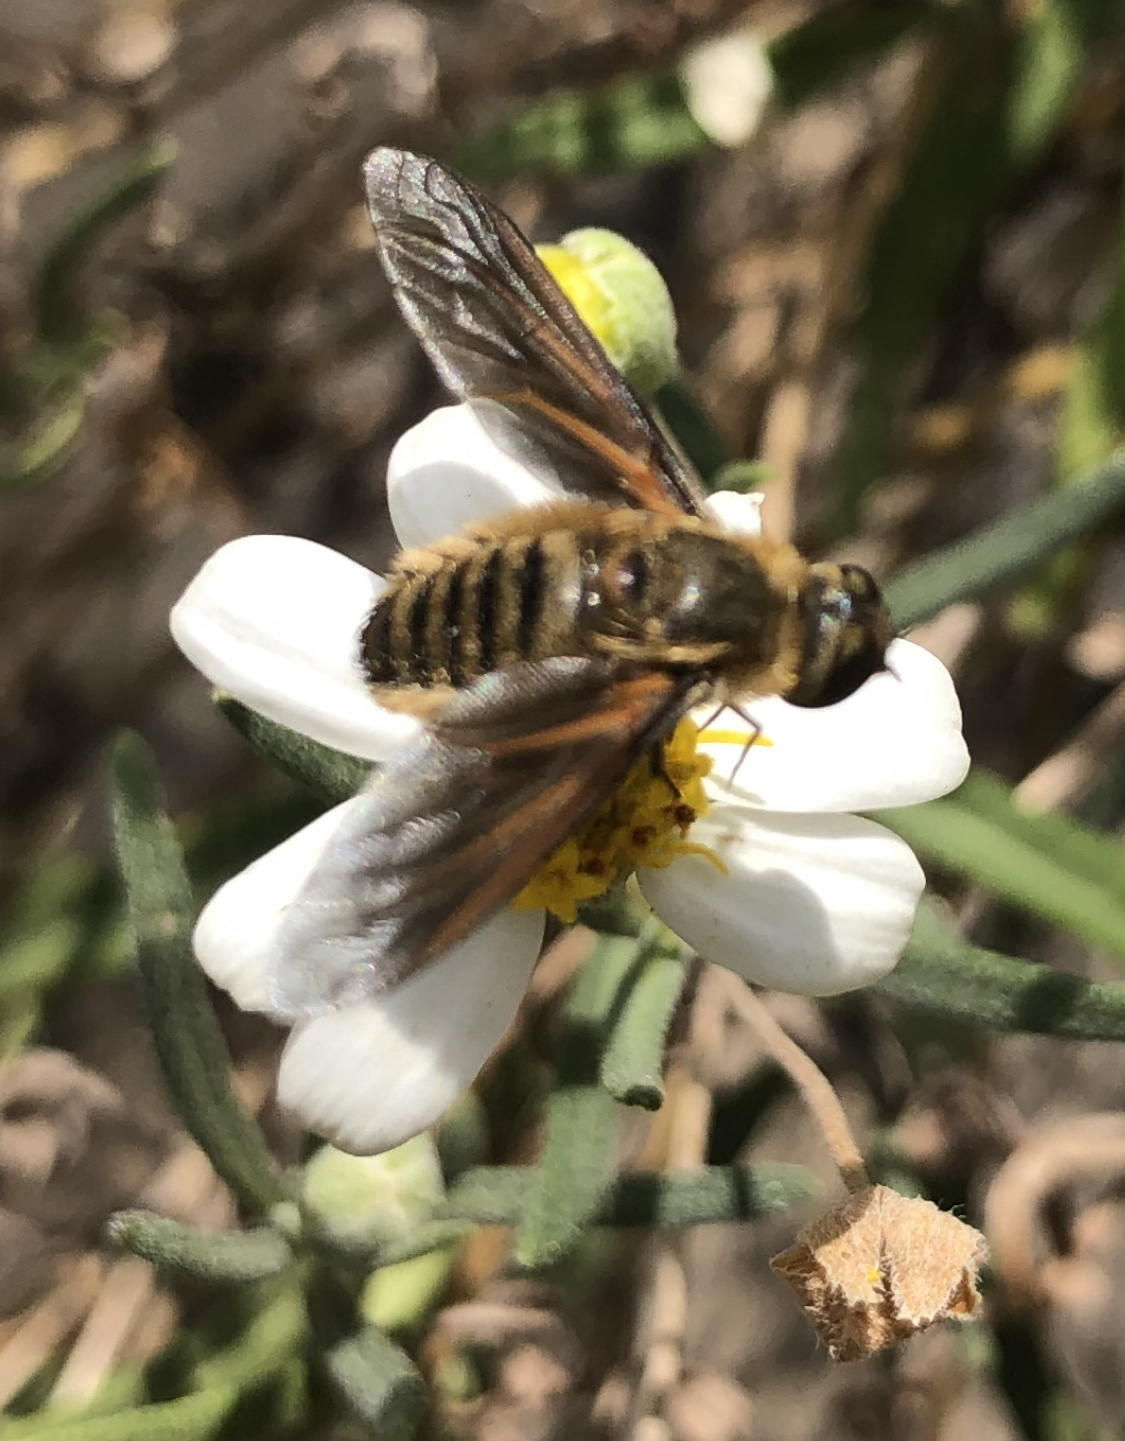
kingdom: Animalia
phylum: Arthropoda
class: Insecta
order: Diptera
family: Bombyliidae
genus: Poecilanthrax
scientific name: Poecilanthrax lucifer
